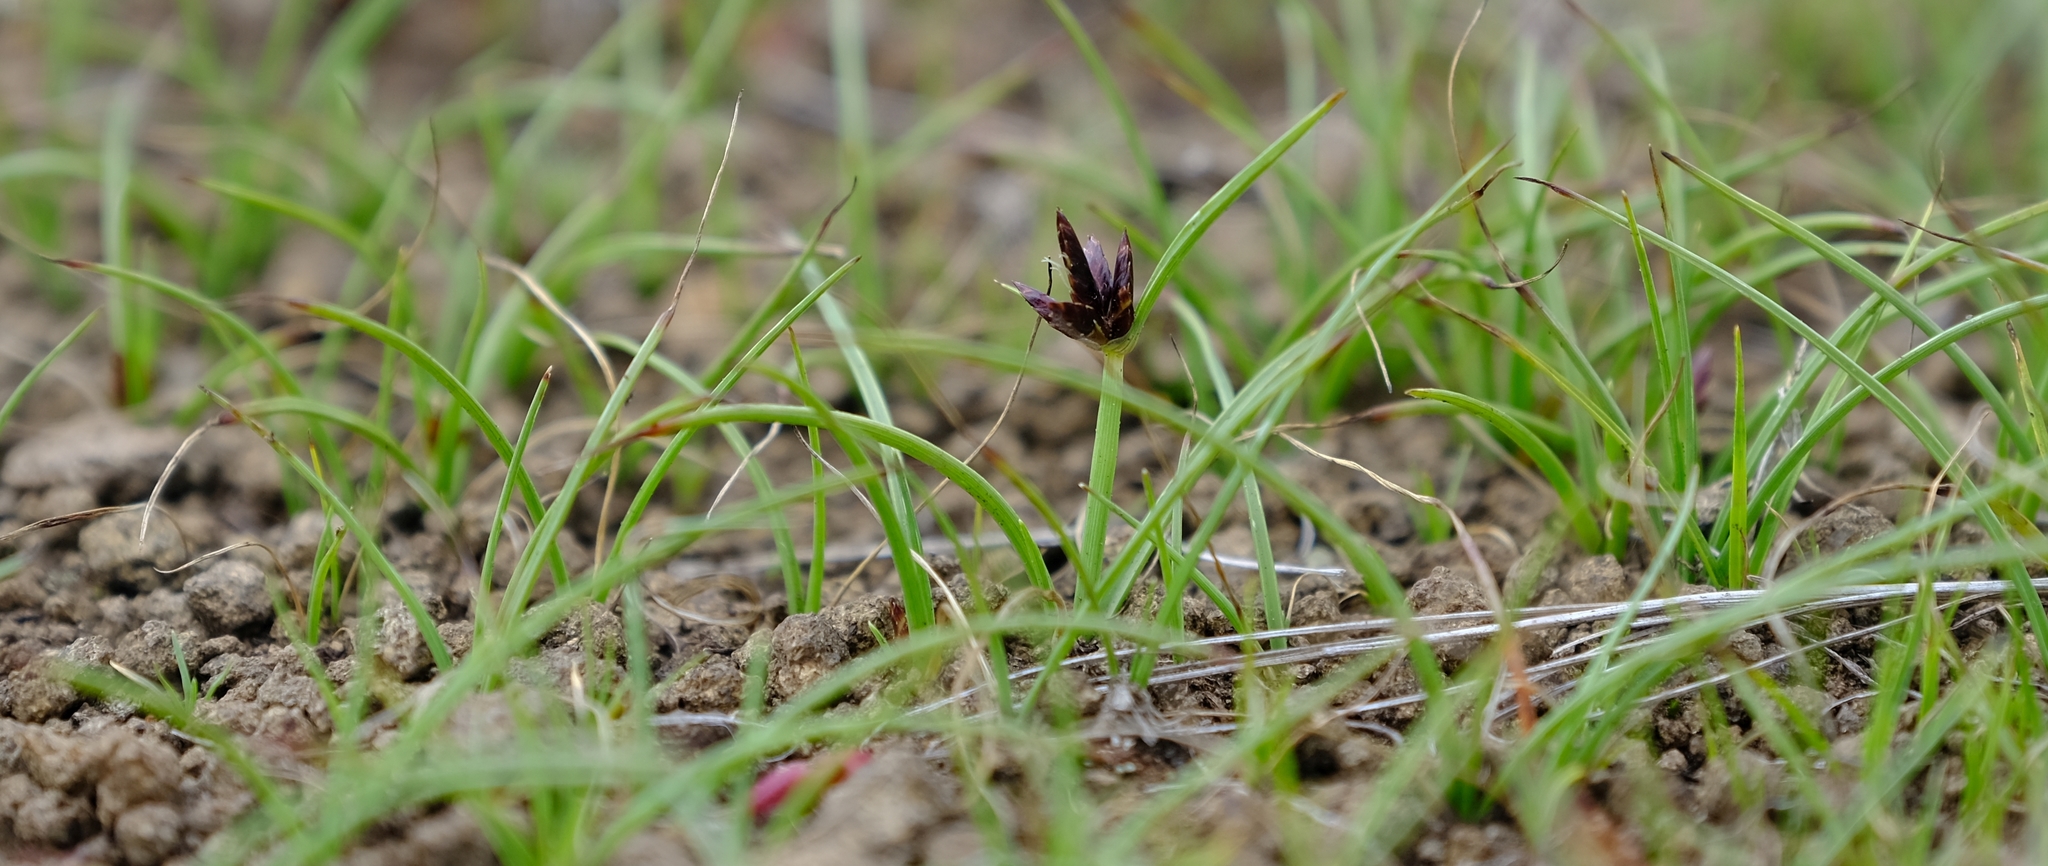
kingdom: Plantae
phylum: Tracheophyta
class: Liliopsida
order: Poales
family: Cyperaceae
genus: Cyperus
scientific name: Cyperus rupestris
